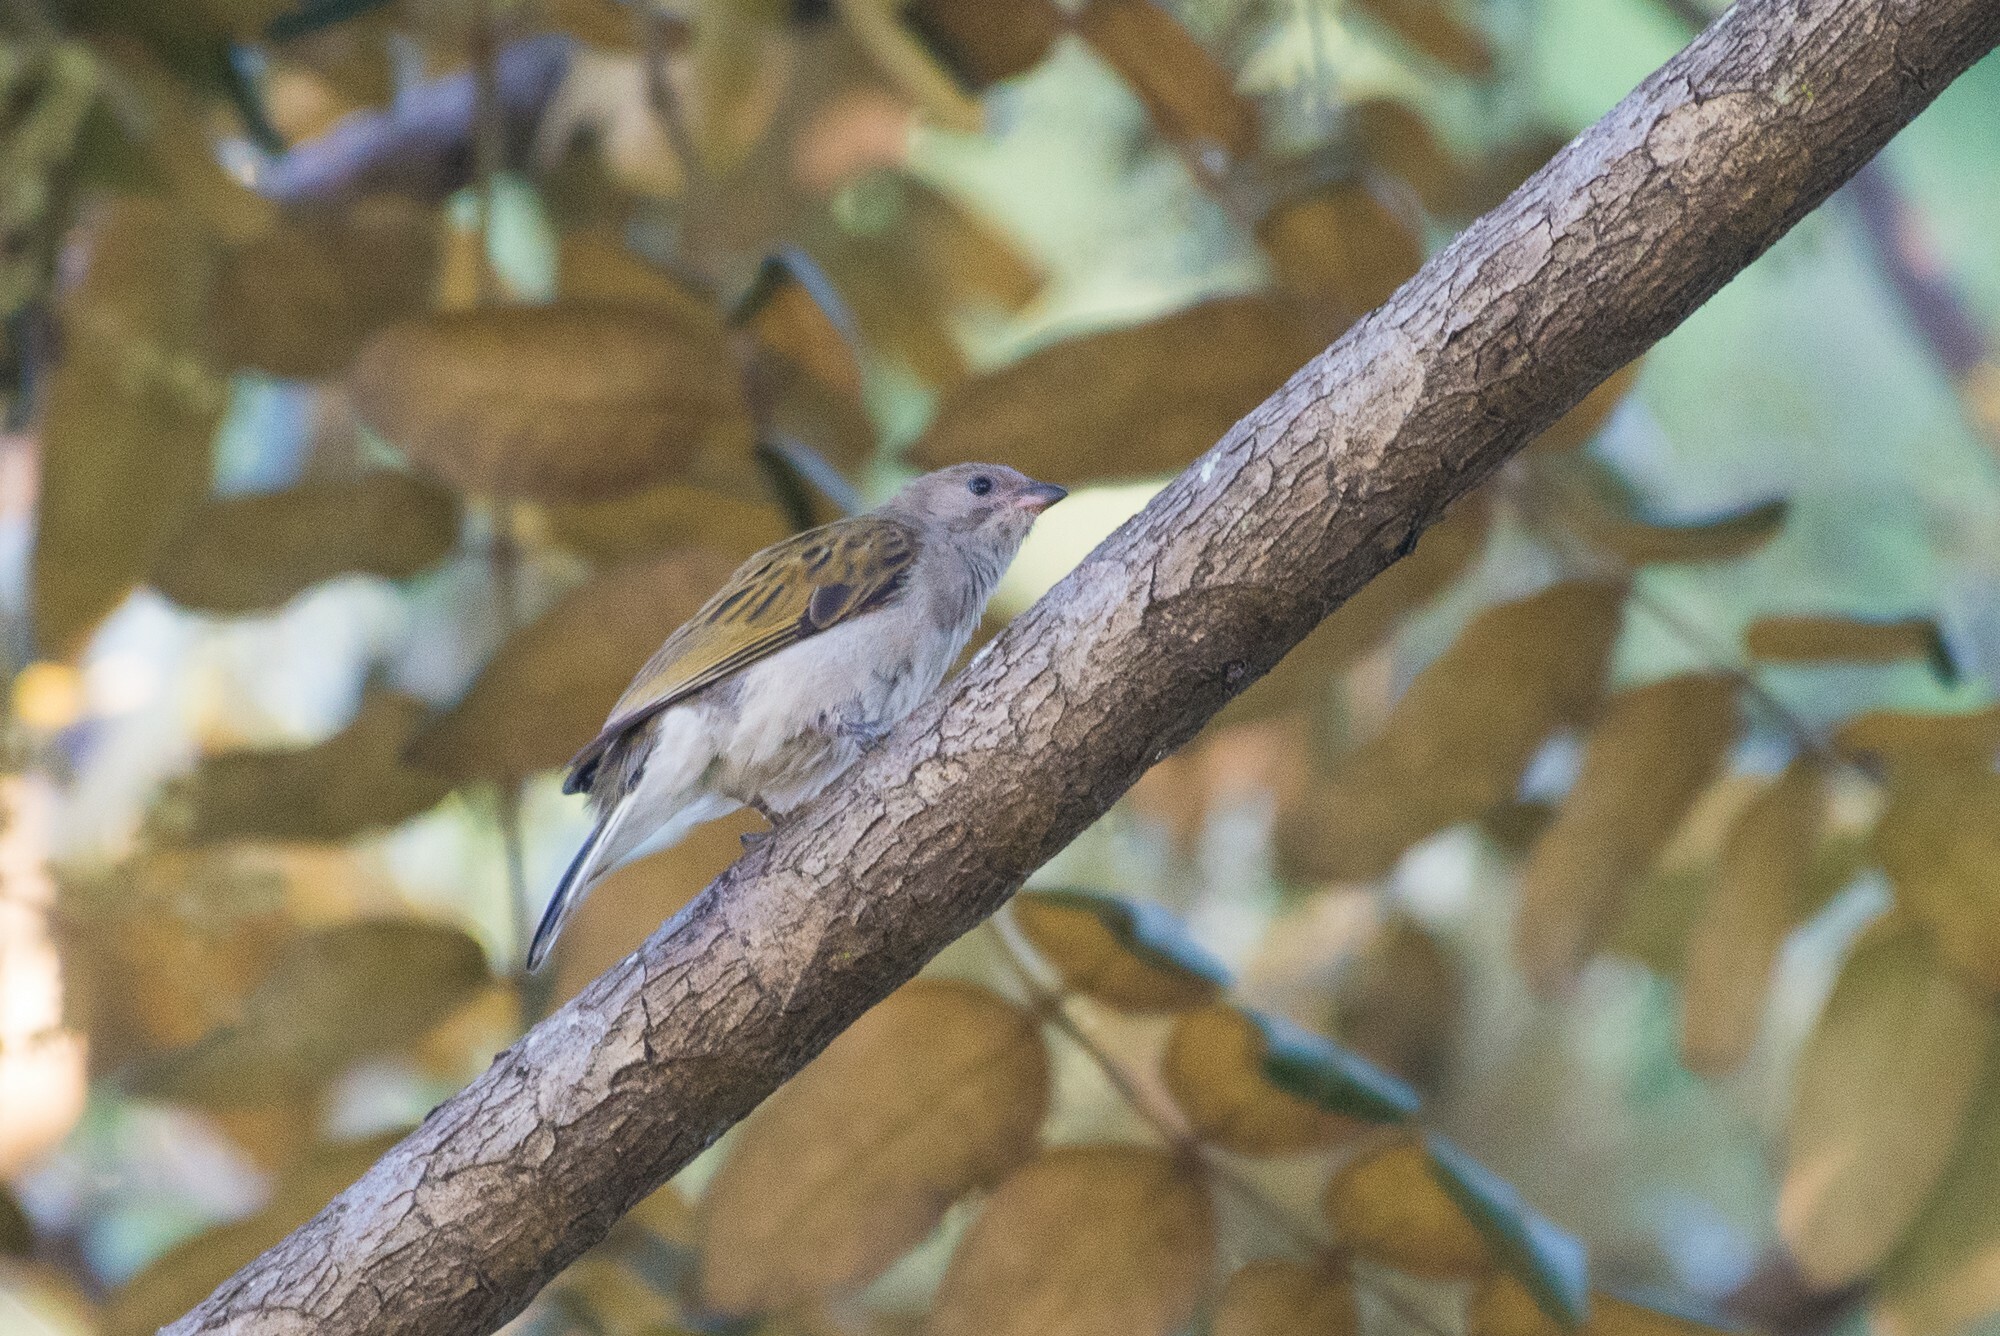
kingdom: Animalia
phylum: Chordata
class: Aves
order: Piciformes
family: Indicatoridae
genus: Indicator
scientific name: Indicator minor
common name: Lesser honeyguide
